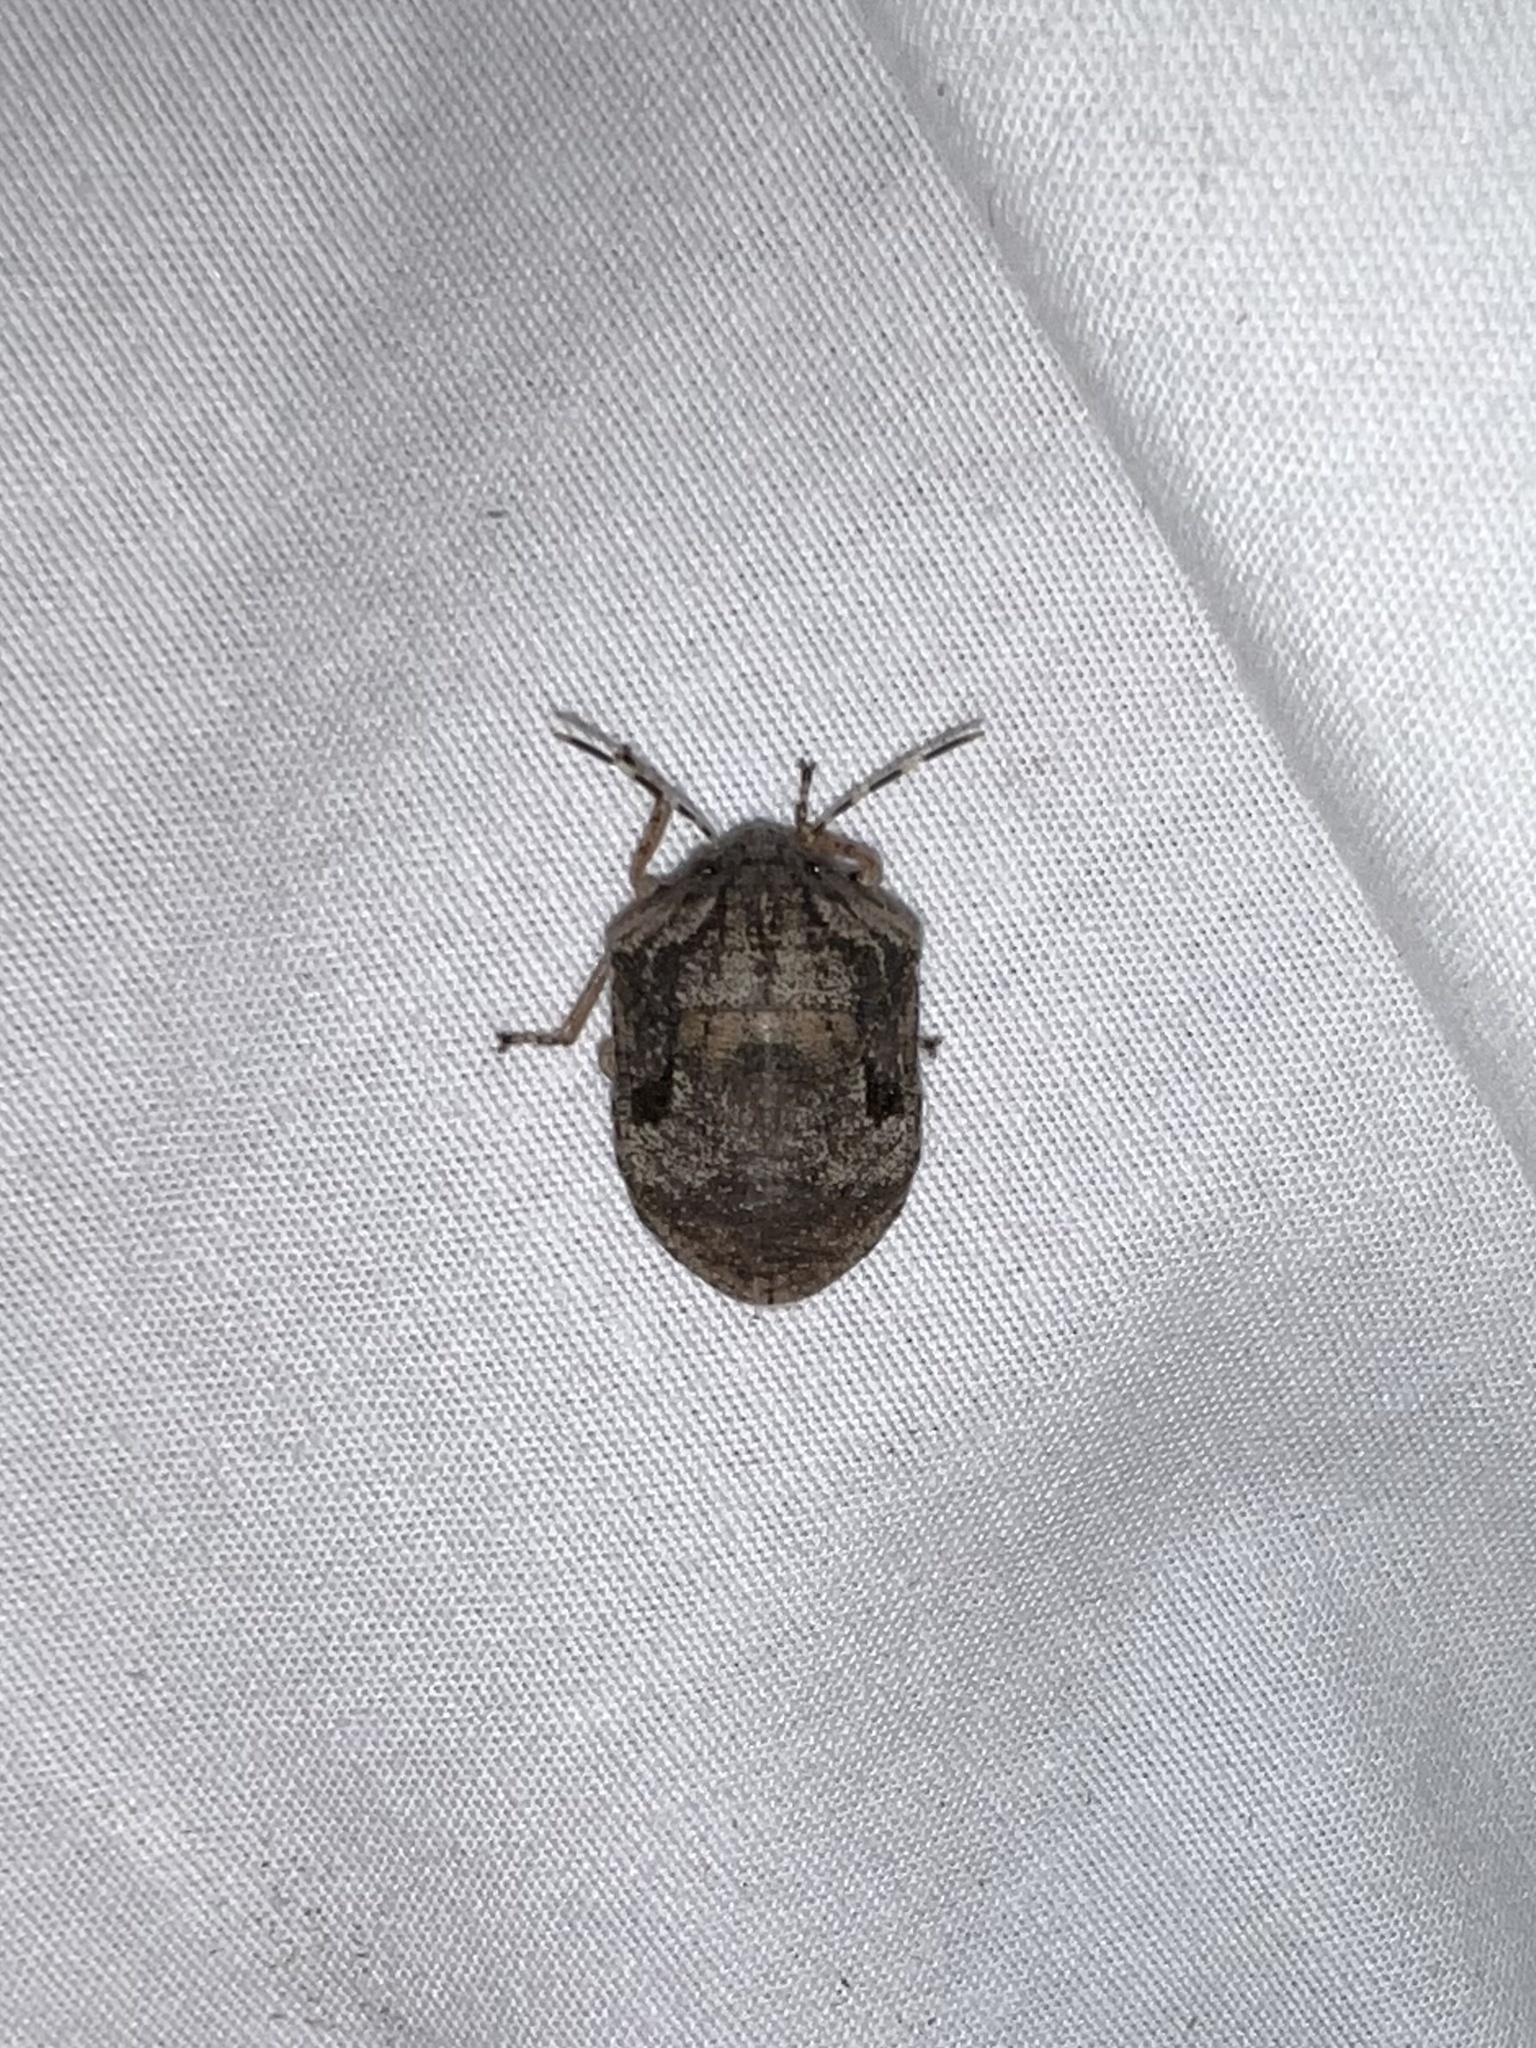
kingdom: Animalia
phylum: Arthropoda
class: Insecta
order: Hemiptera
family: Scutelleridae
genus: Tetyra
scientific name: Tetyra antillarum
